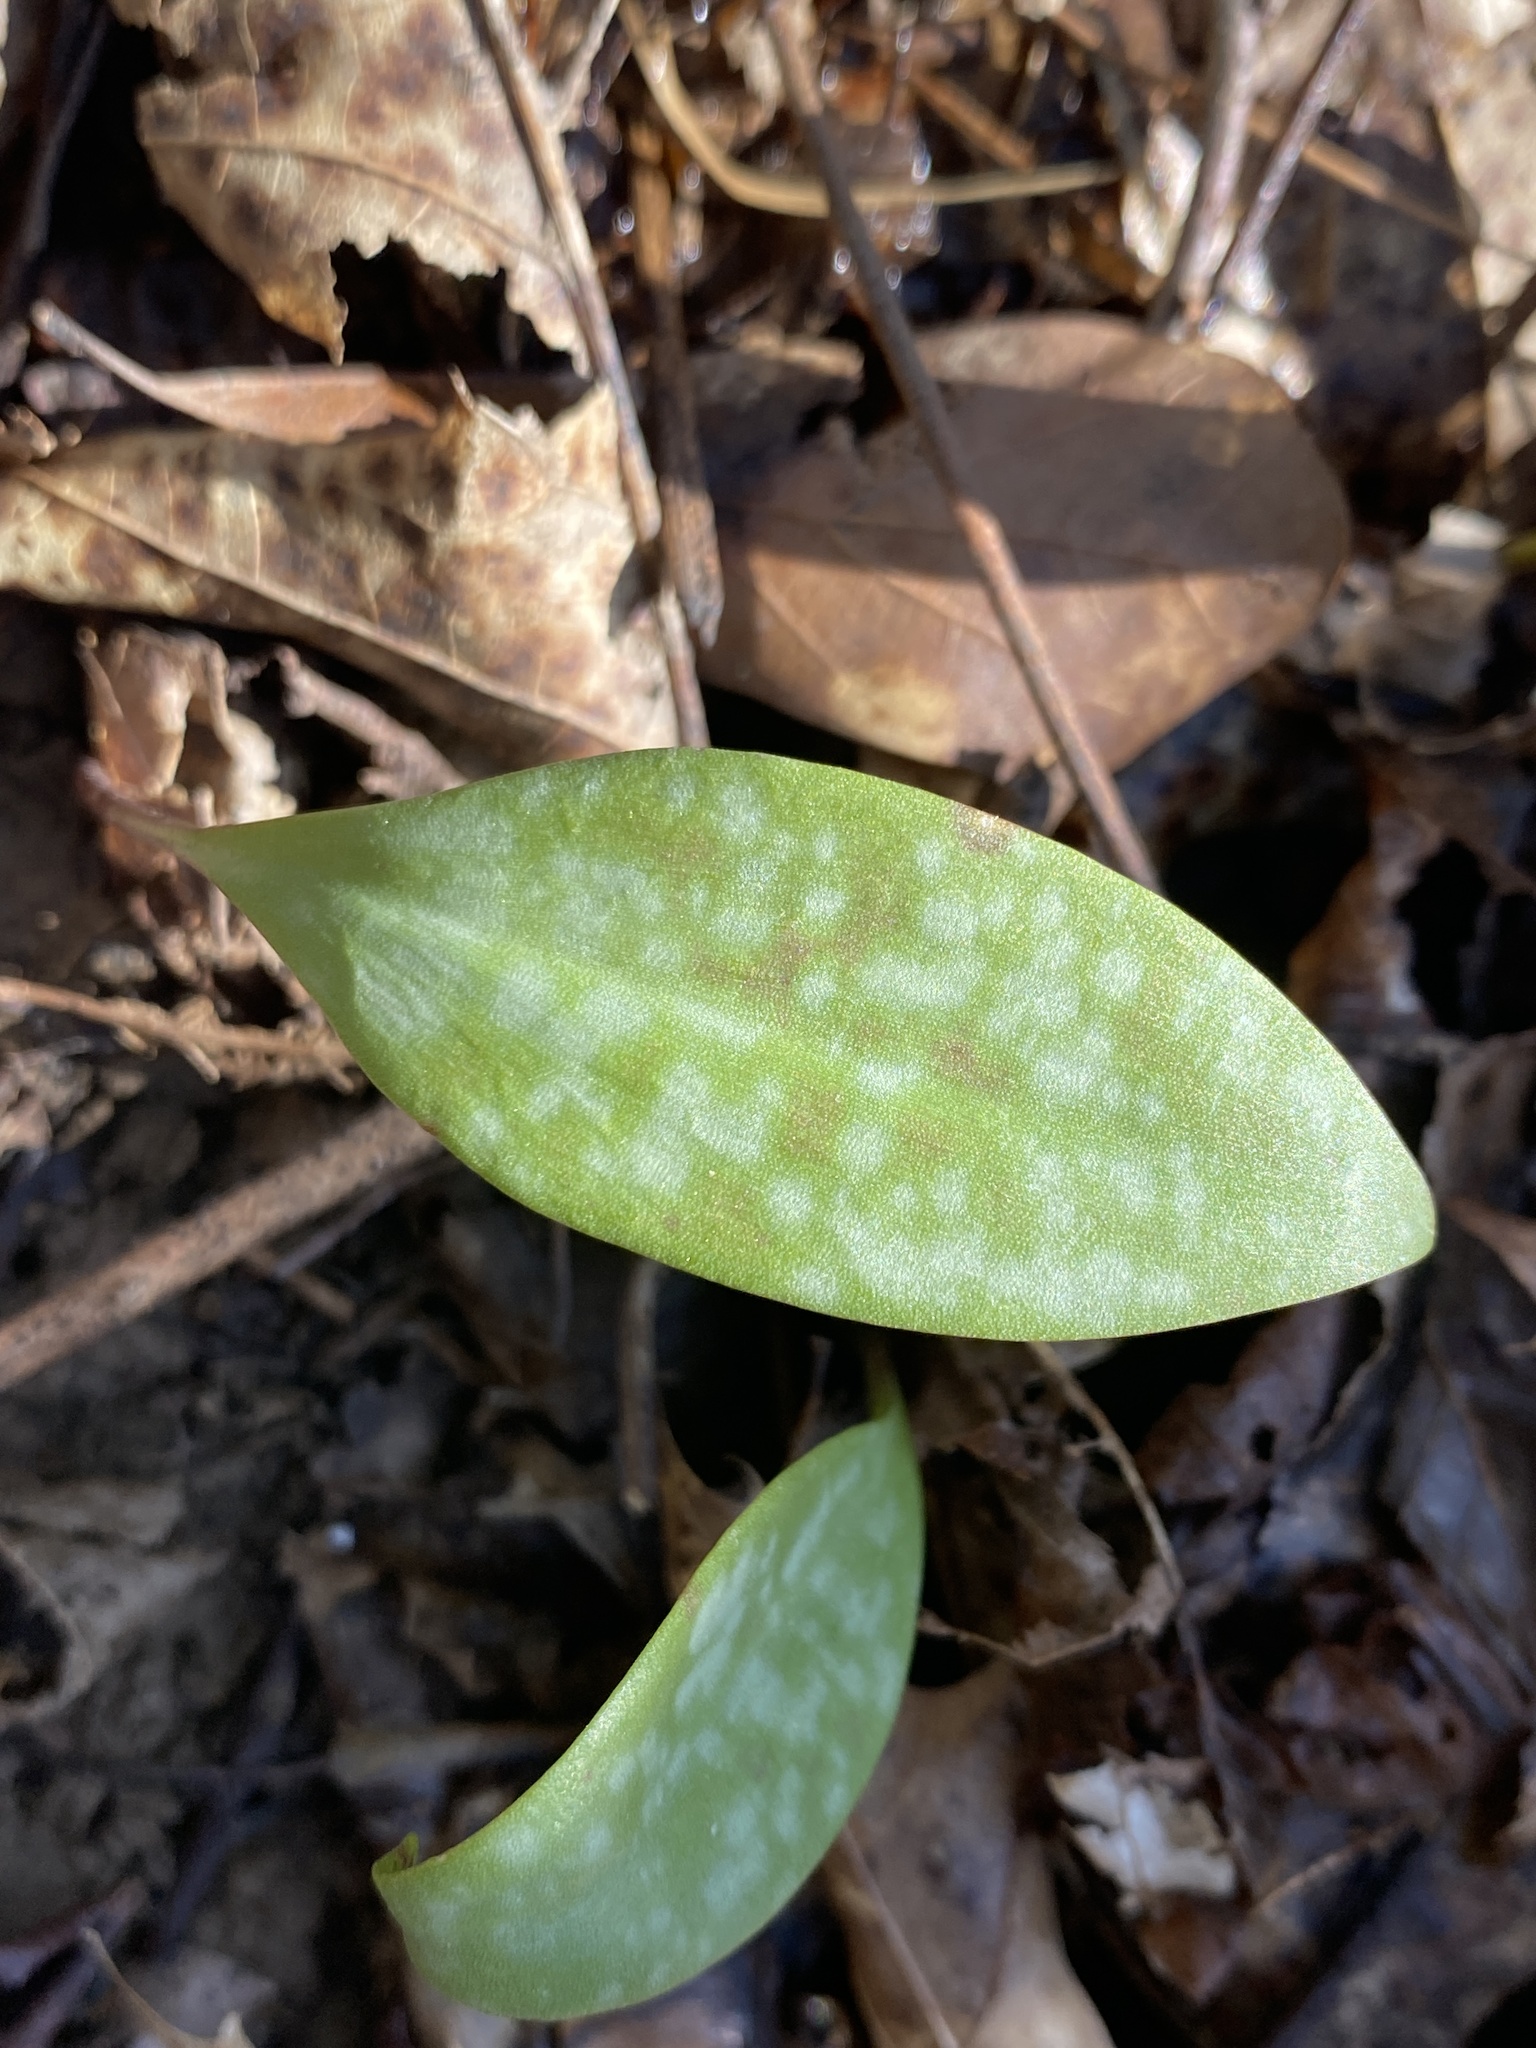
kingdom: Plantae
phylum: Tracheophyta
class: Liliopsida
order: Liliales
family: Liliaceae
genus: Erythronium
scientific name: Erythronium rostratum
